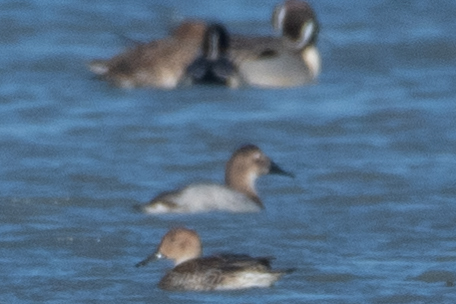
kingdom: Animalia
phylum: Chordata
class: Aves
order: Anseriformes
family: Anatidae
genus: Aythya
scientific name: Aythya valisineria
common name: Canvasback
